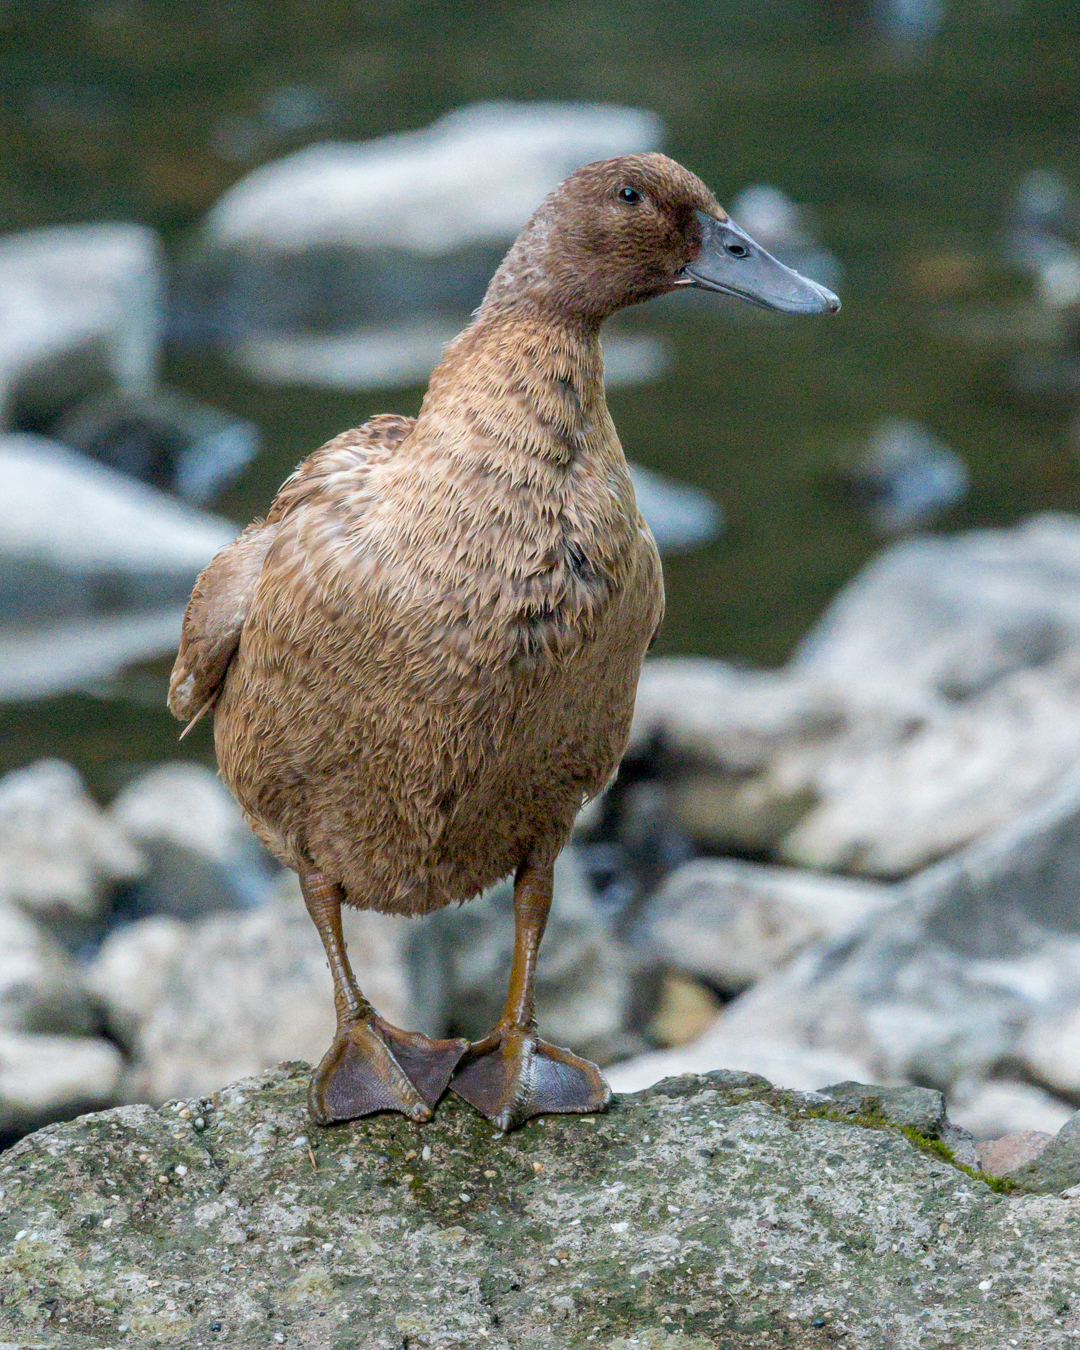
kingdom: Animalia
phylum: Chordata
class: Aves
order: Anseriformes
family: Anatidae
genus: Anas
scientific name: Anas platyrhynchos
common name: Mallard
